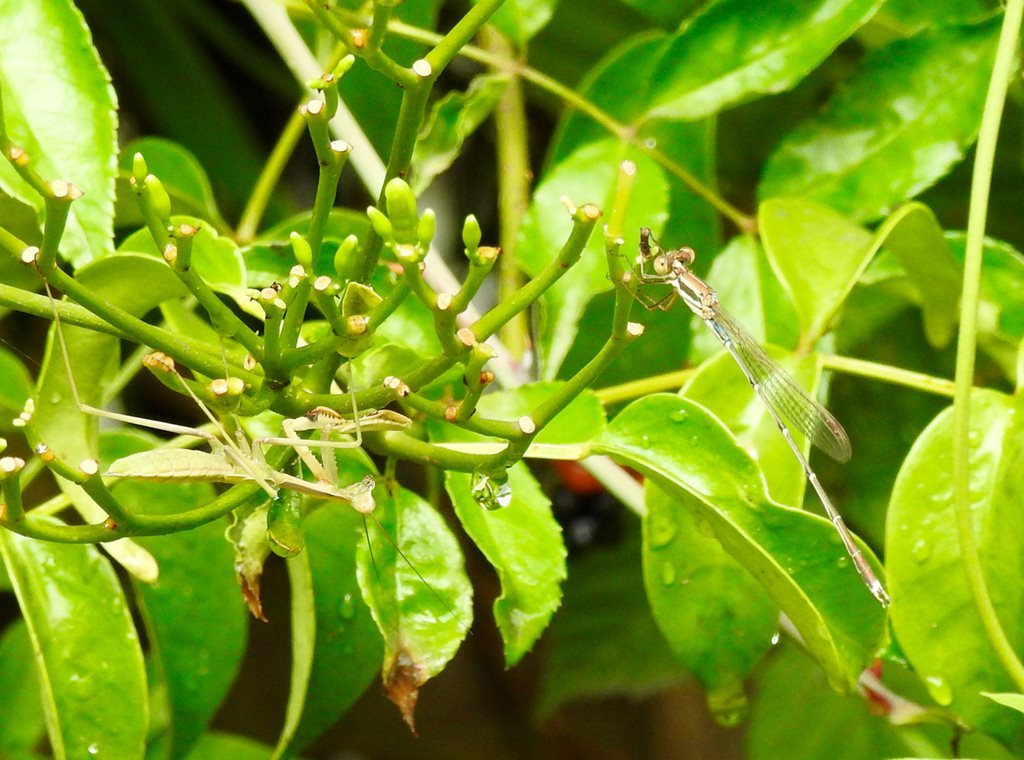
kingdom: Animalia
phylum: Arthropoda
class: Insecta
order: Mantodea
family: Mantidae
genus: Pseudomantis
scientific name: Pseudomantis albofimbriata
